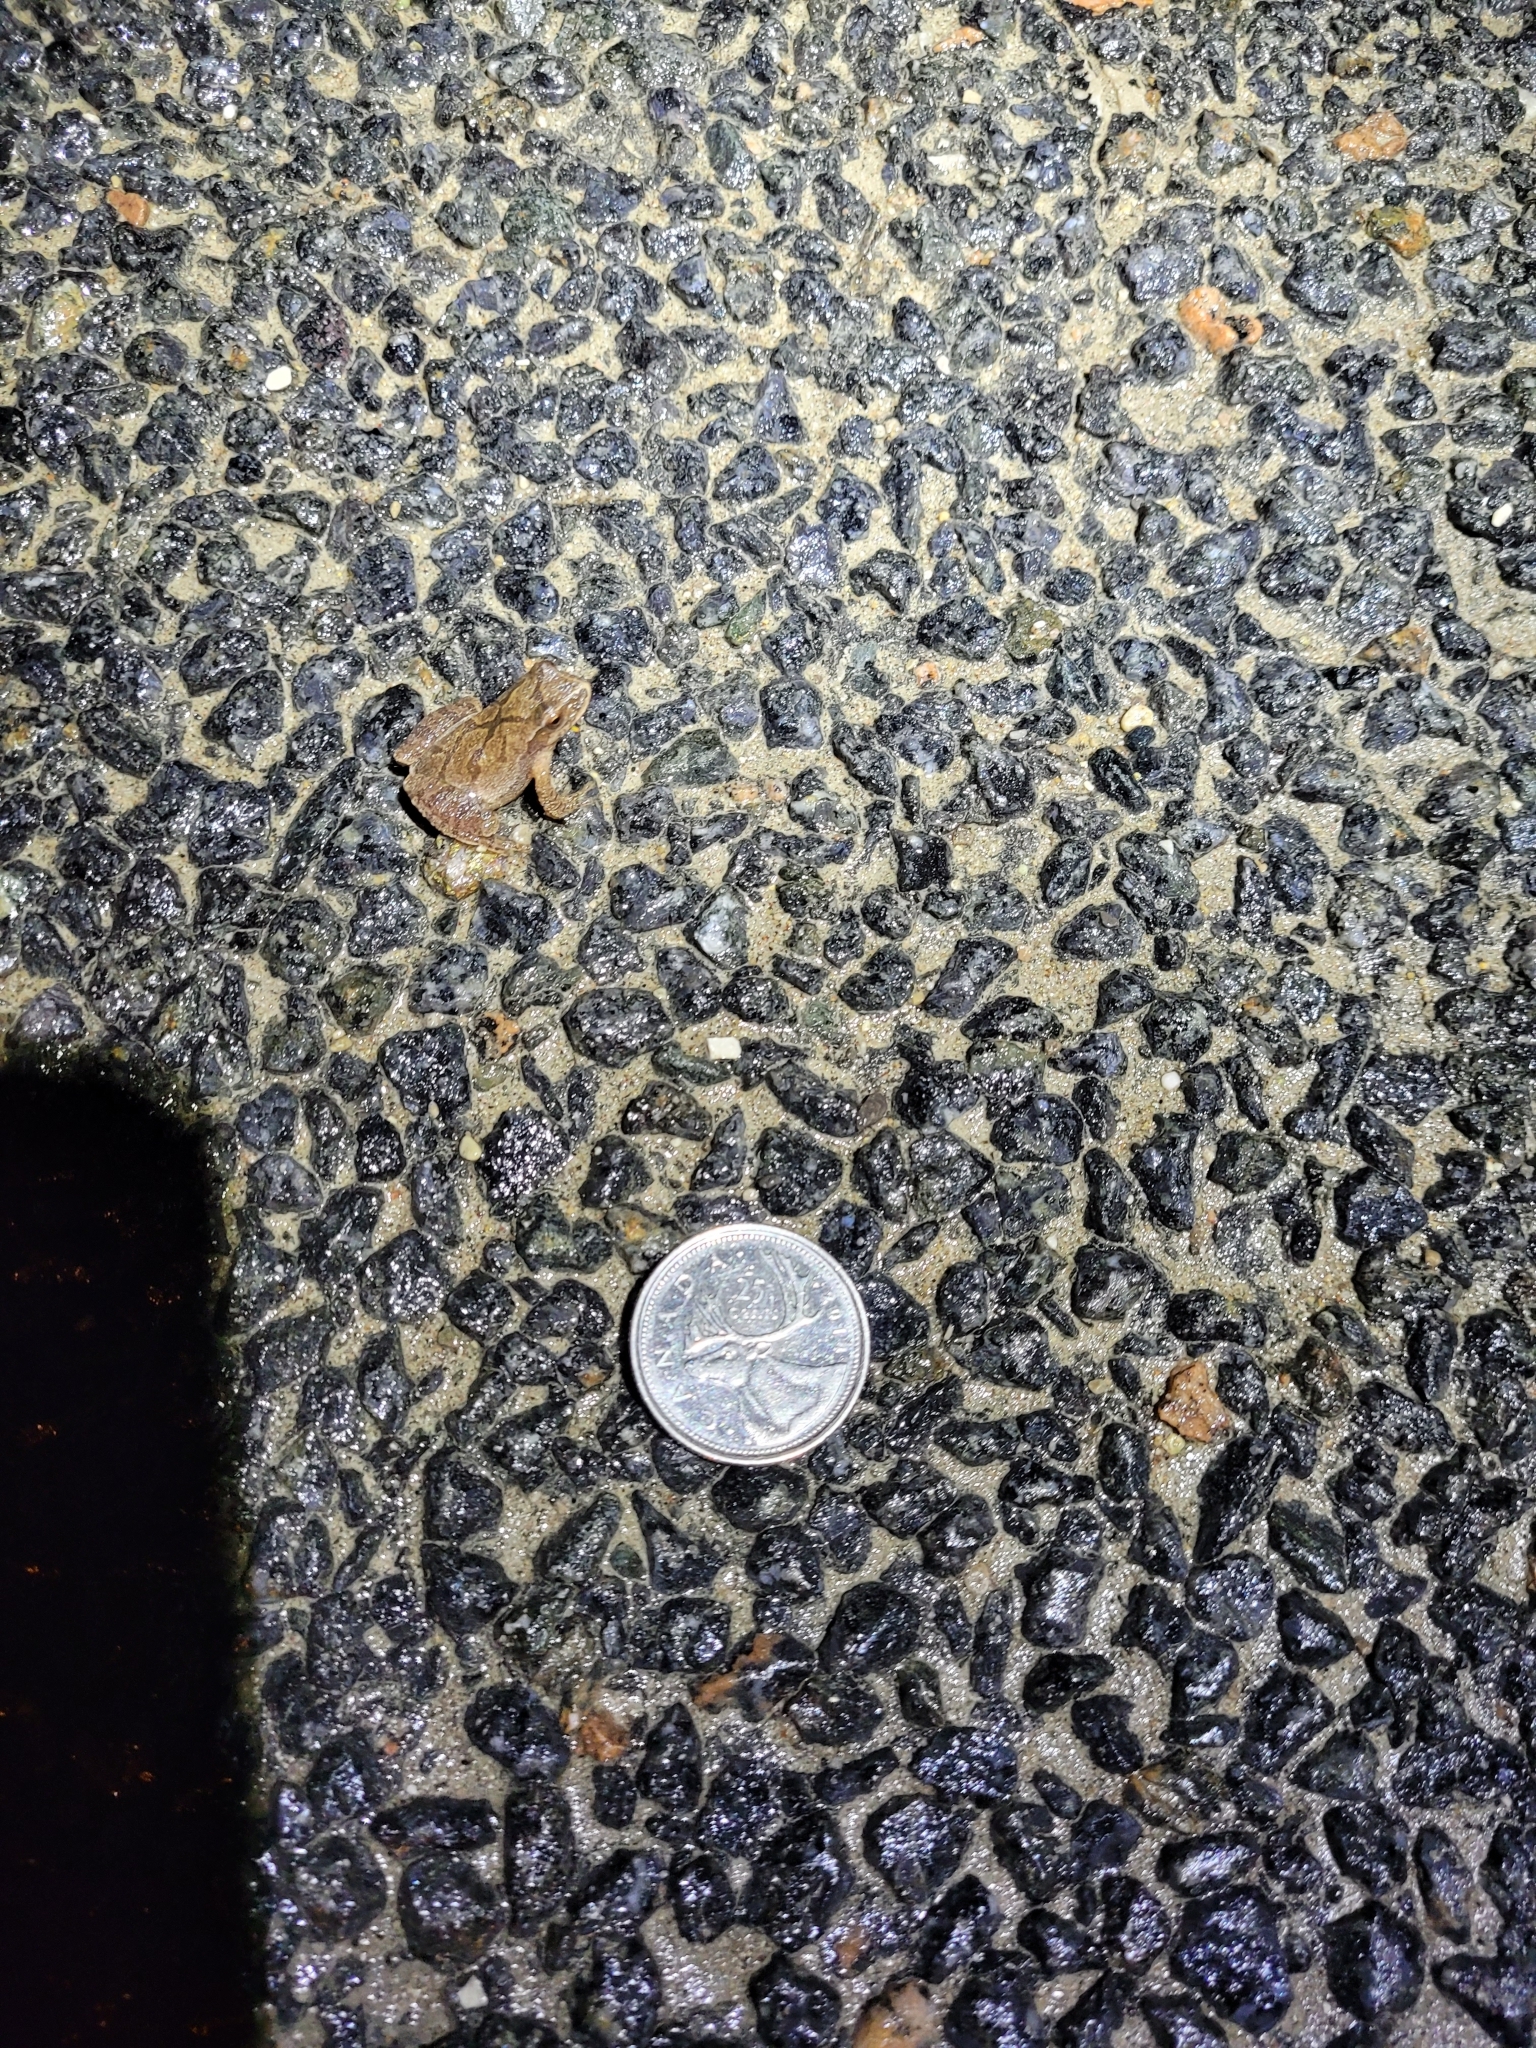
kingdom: Animalia
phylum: Chordata
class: Amphibia
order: Anura
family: Hylidae
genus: Pseudacris
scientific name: Pseudacris crucifer
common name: Spring peeper
